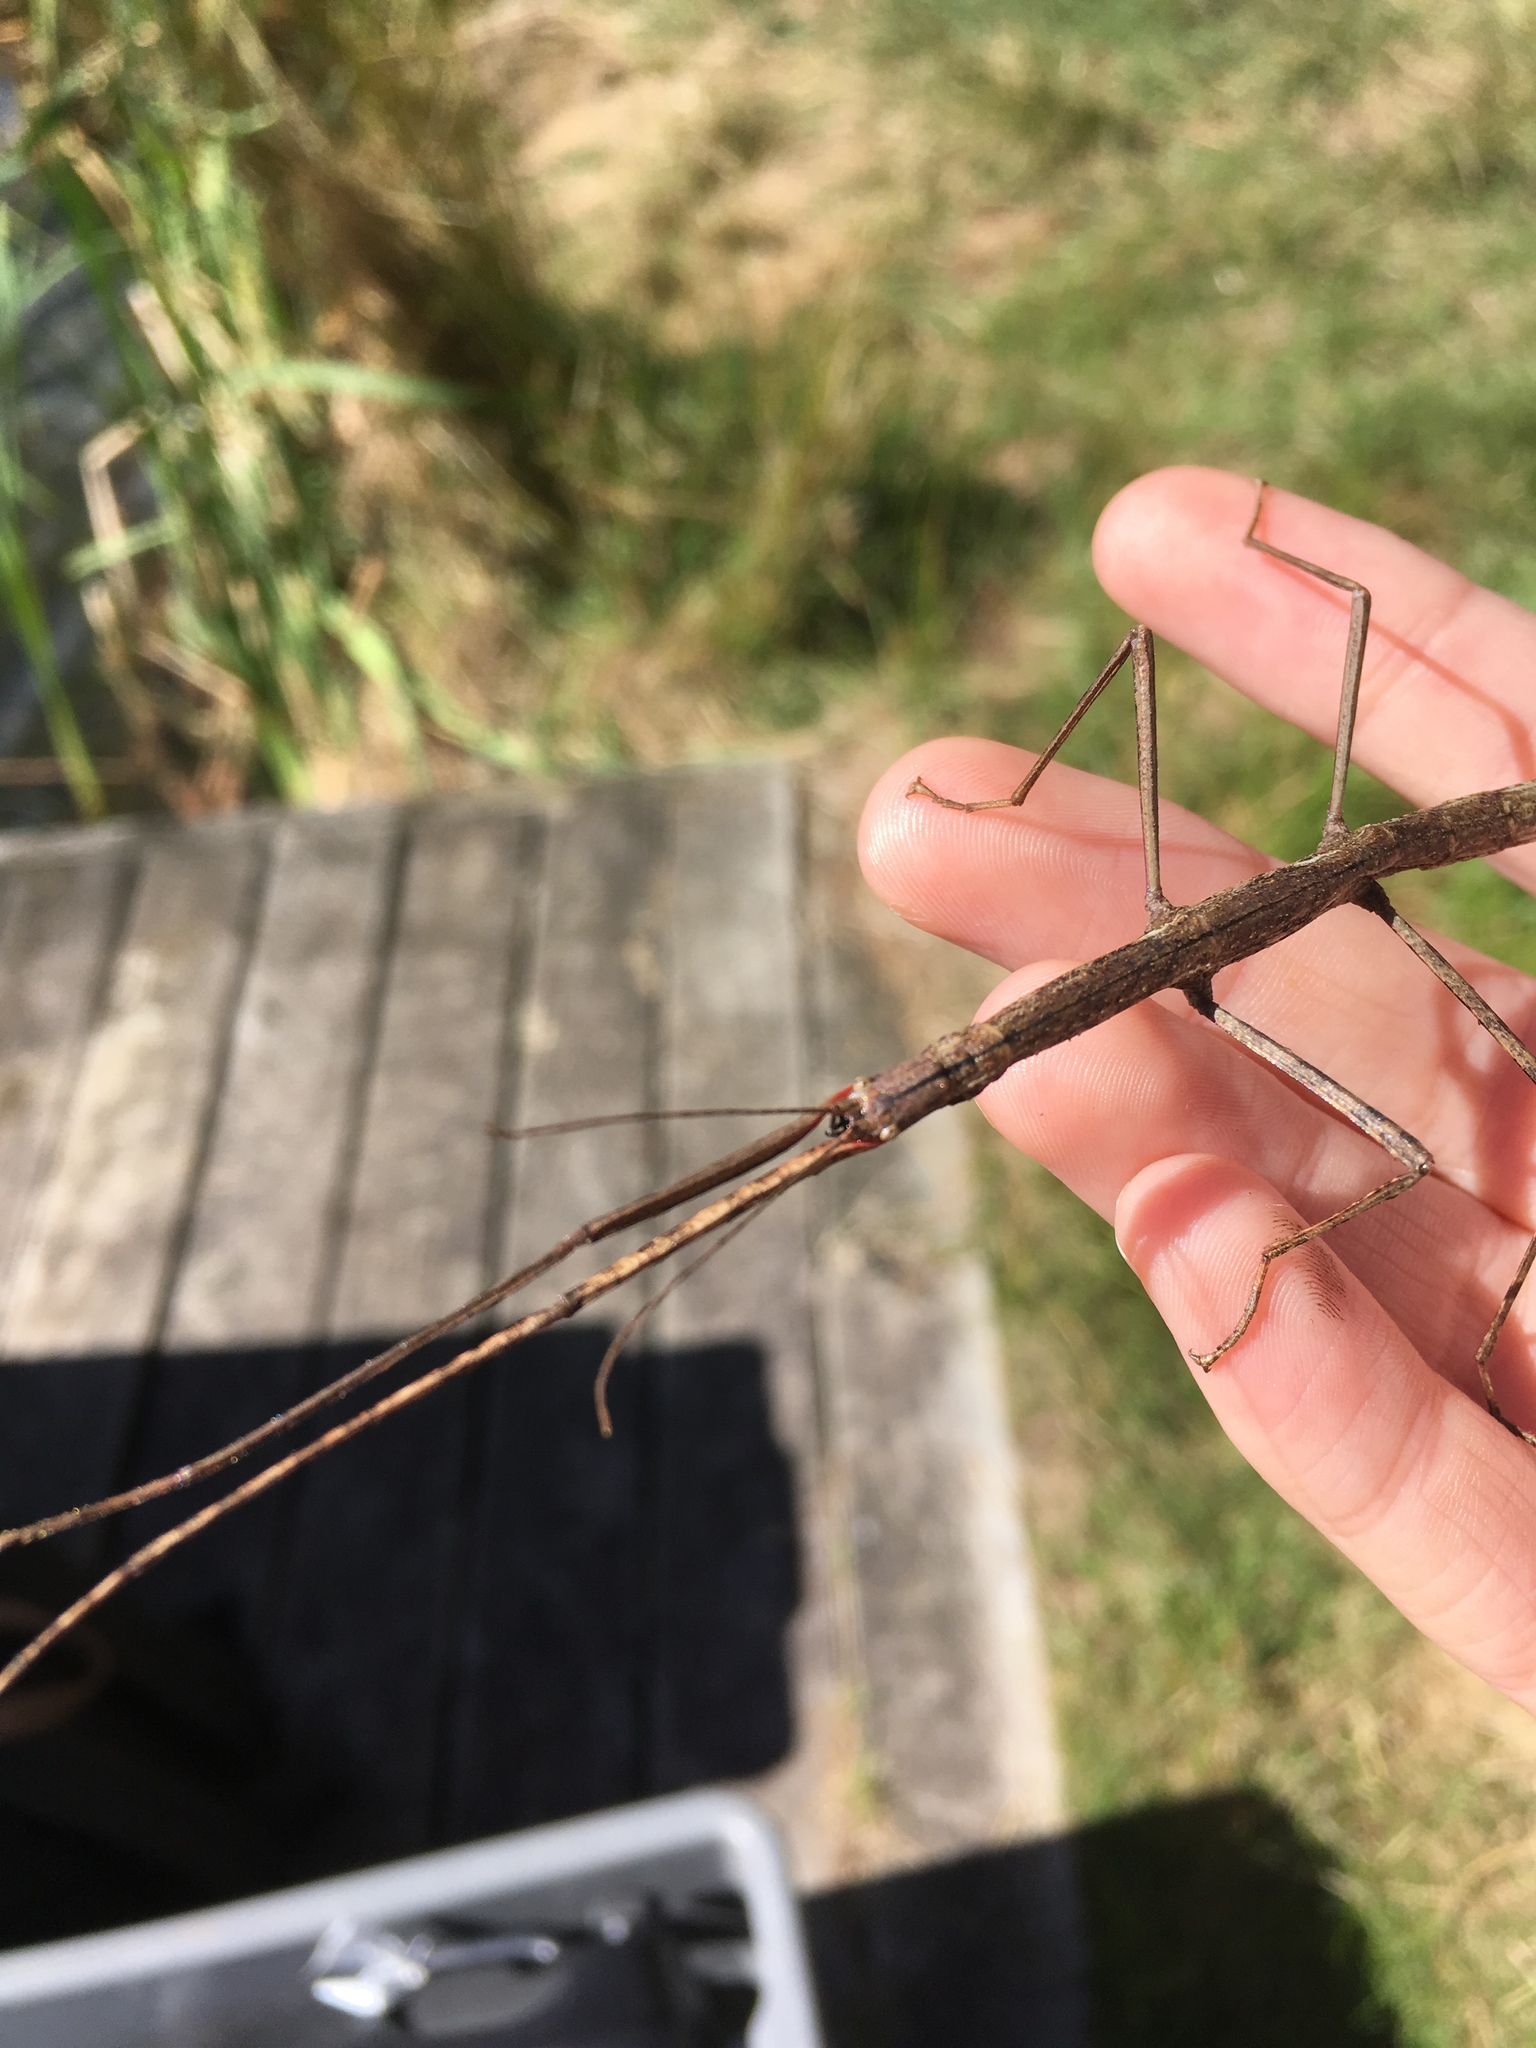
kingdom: Animalia
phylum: Arthropoda
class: Insecta
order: Phasmida
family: Phasmatidae
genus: Clitarchus
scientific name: Clitarchus hookeri
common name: Smooth stick insect
